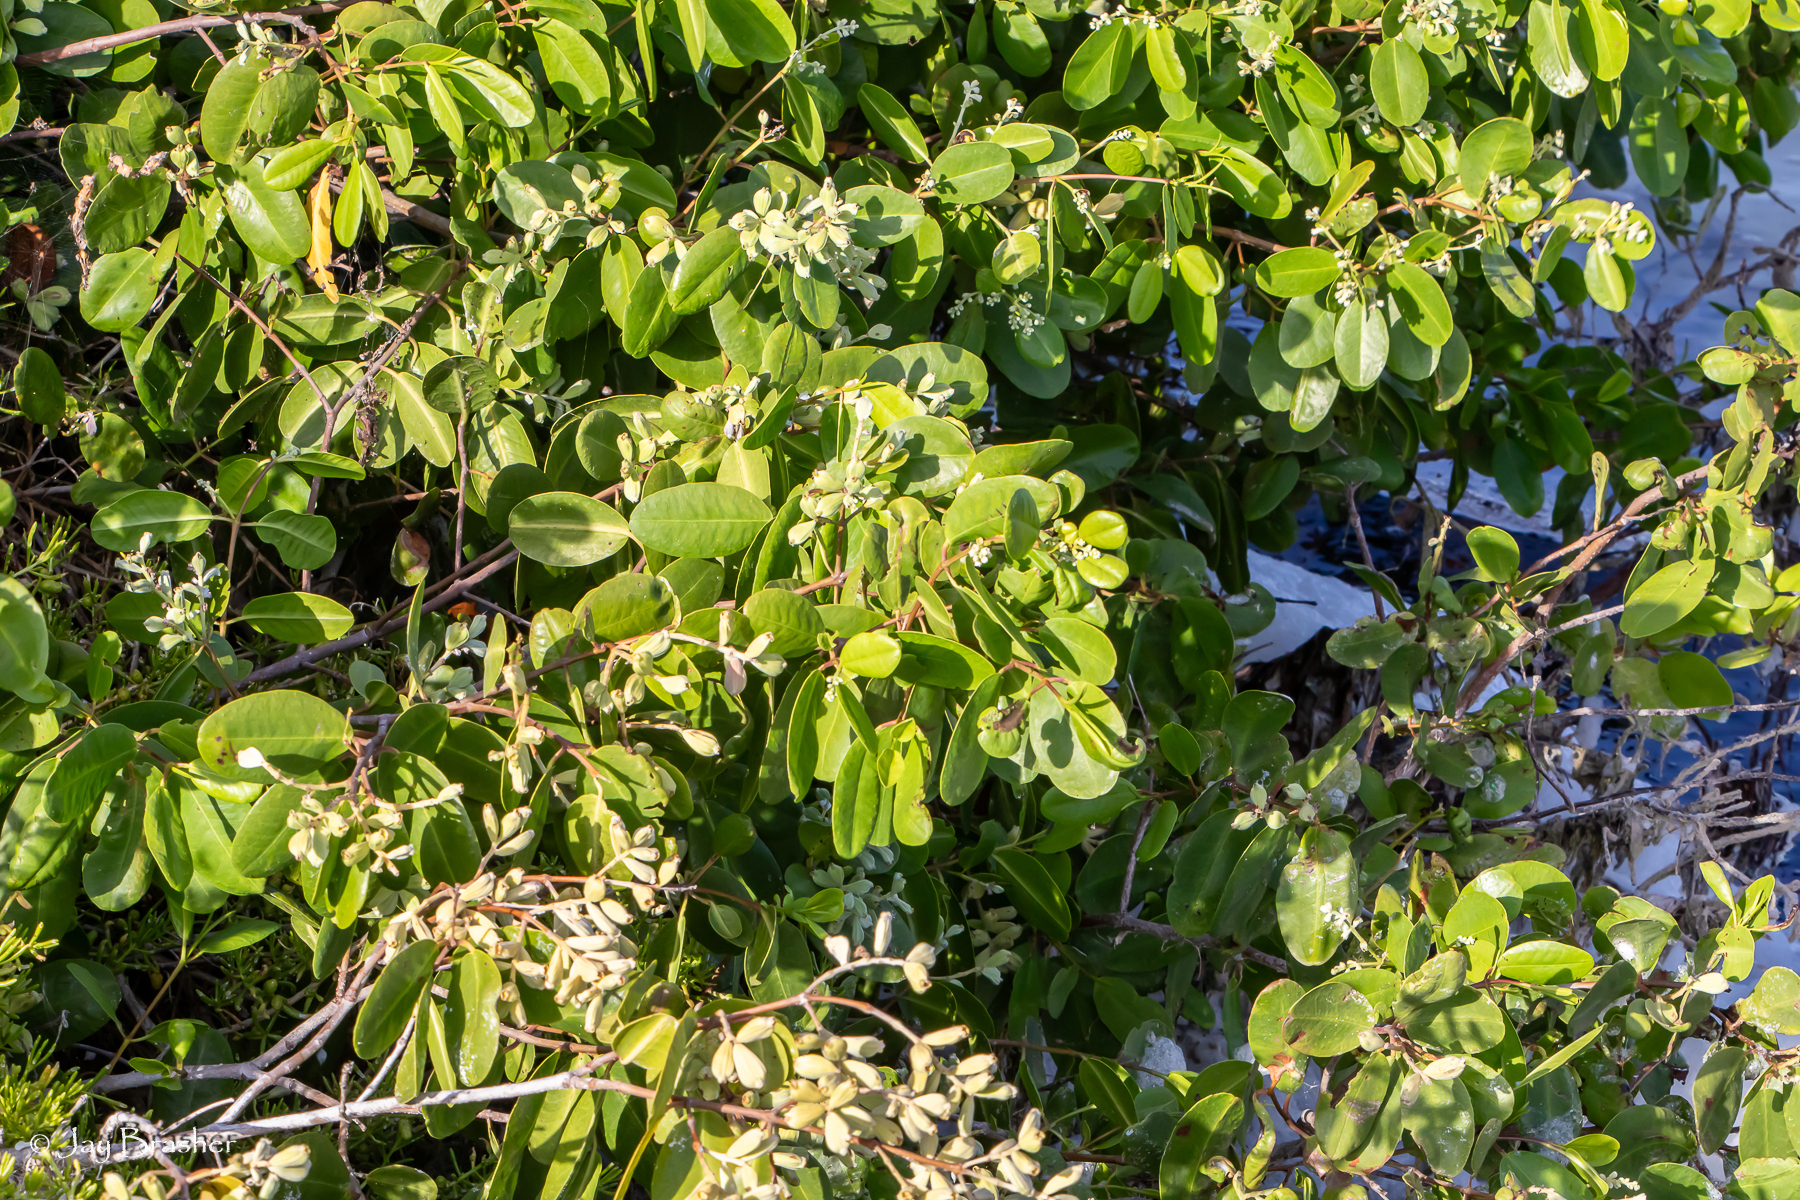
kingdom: Plantae
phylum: Tracheophyta
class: Magnoliopsida
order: Myrtales
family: Combretaceae
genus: Laguncularia
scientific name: Laguncularia racemosa
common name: White mangrove
